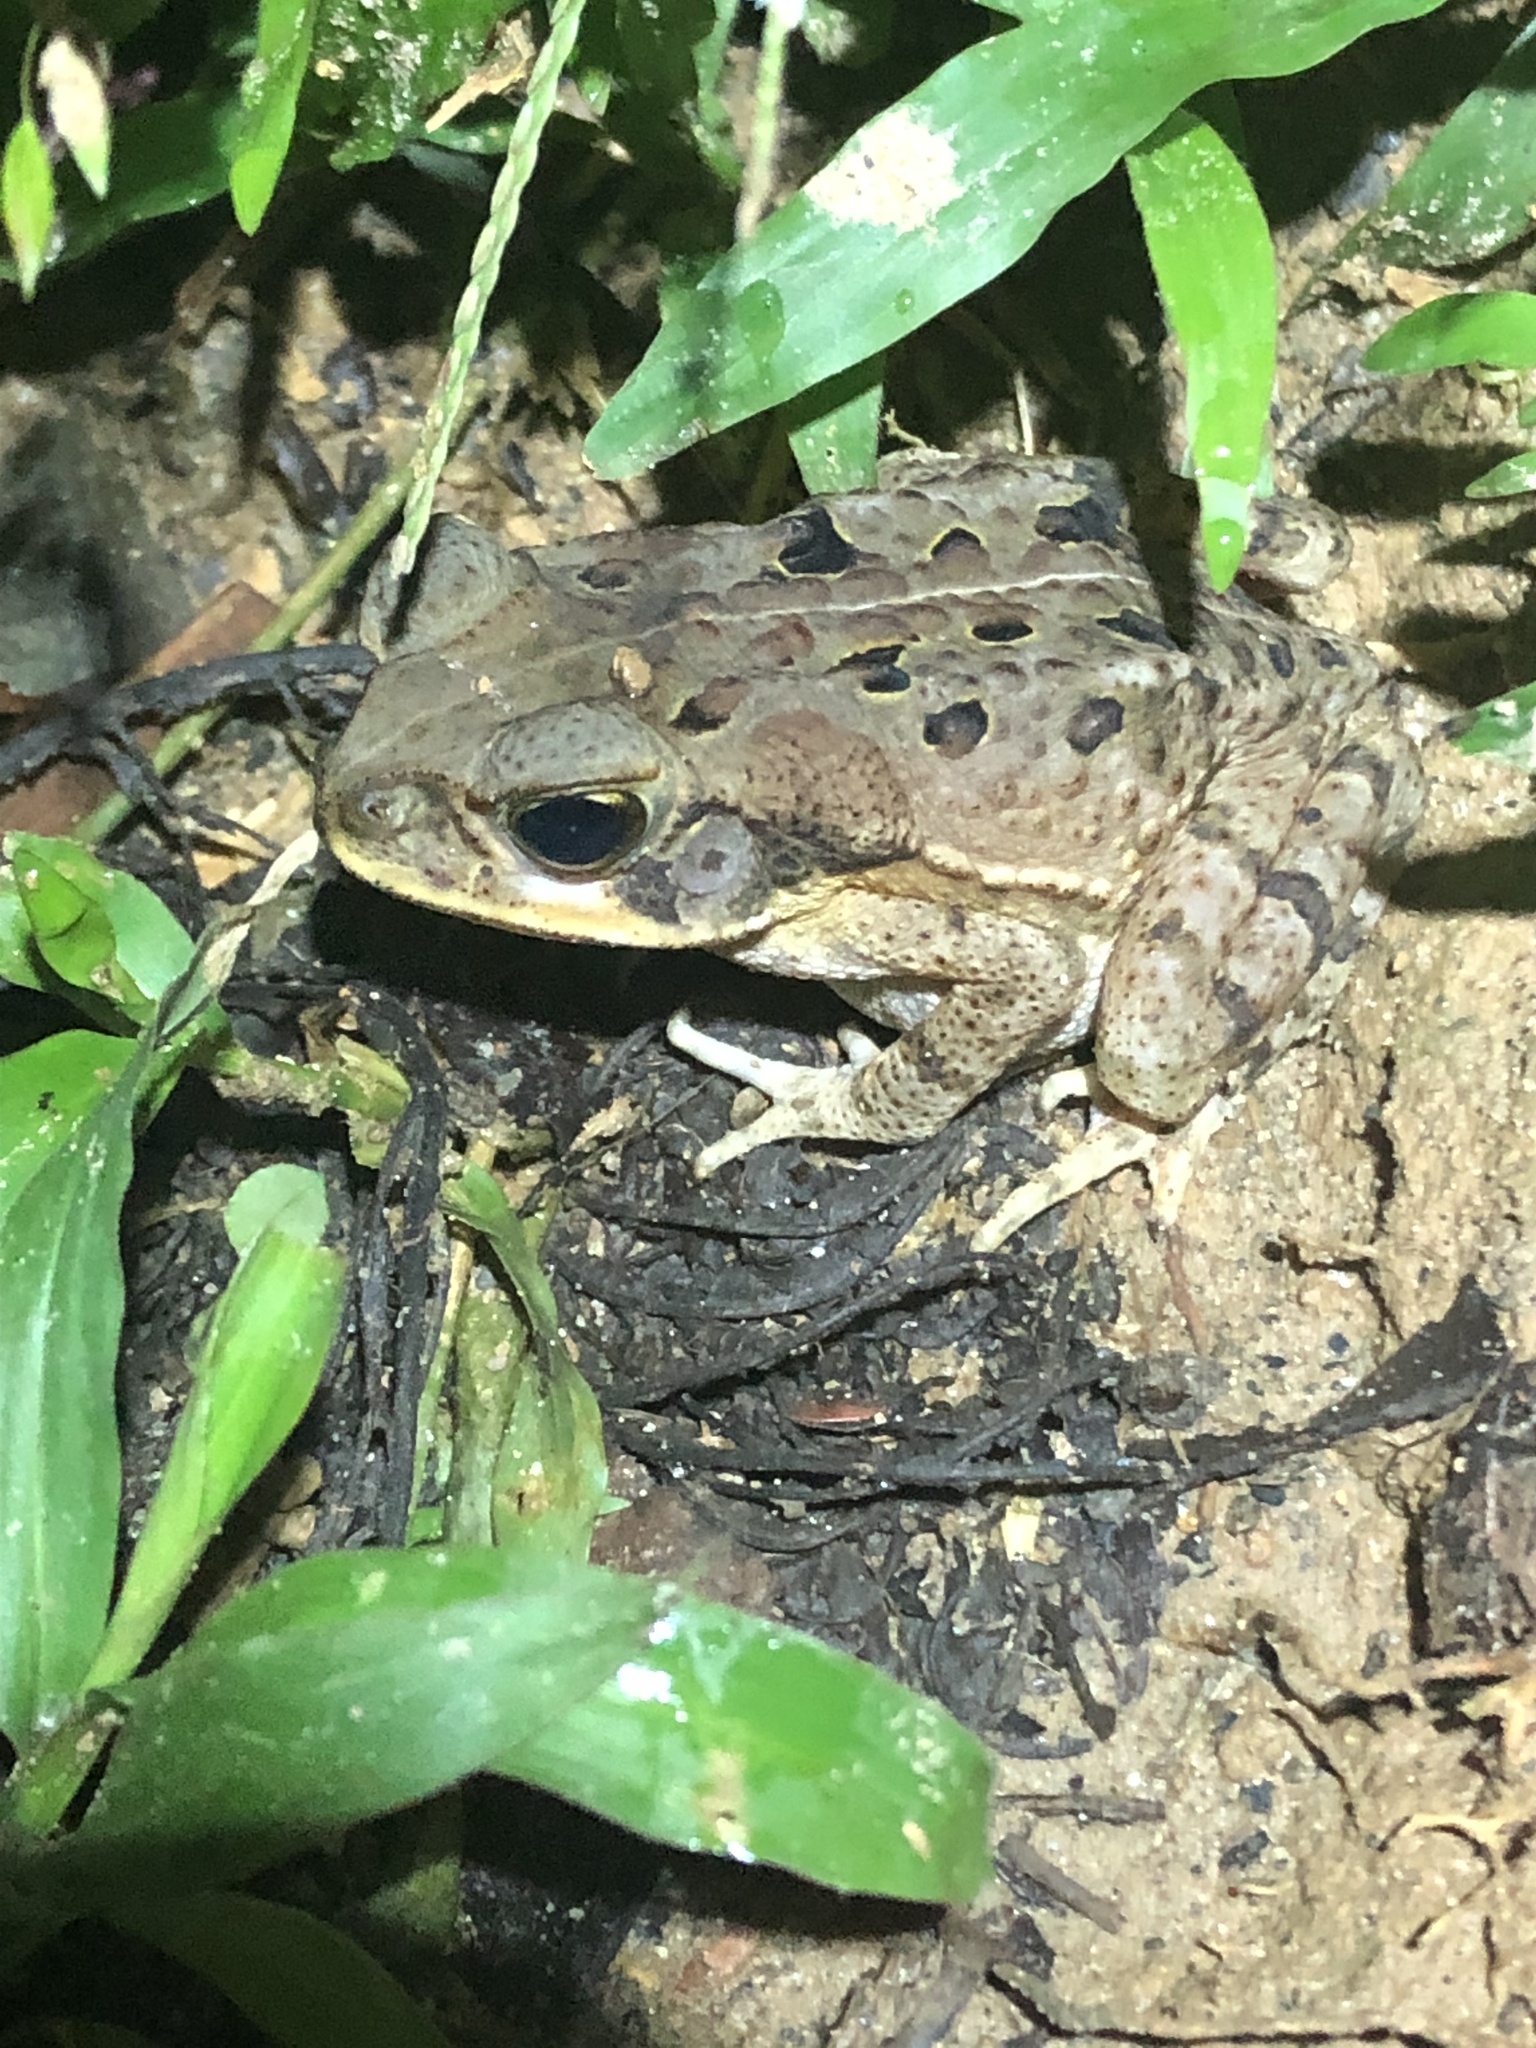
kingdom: Animalia
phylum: Chordata
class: Amphibia
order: Anura
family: Bufonidae
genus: Rhinella
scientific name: Rhinella marina
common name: Cane toad
